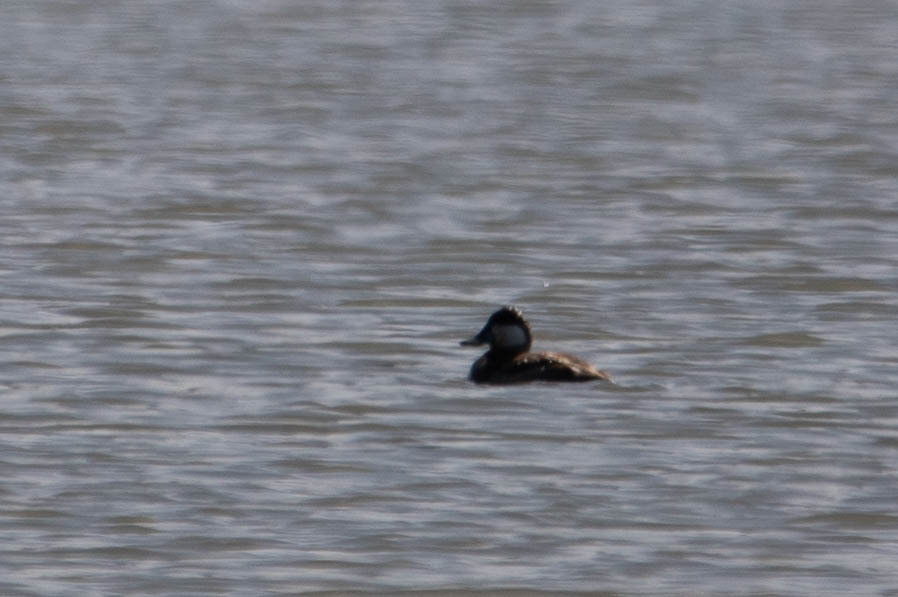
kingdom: Animalia
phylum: Chordata
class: Aves
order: Anseriformes
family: Anatidae
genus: Oxyura
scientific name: Oxyura jamaicensis
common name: Ruddy duck
